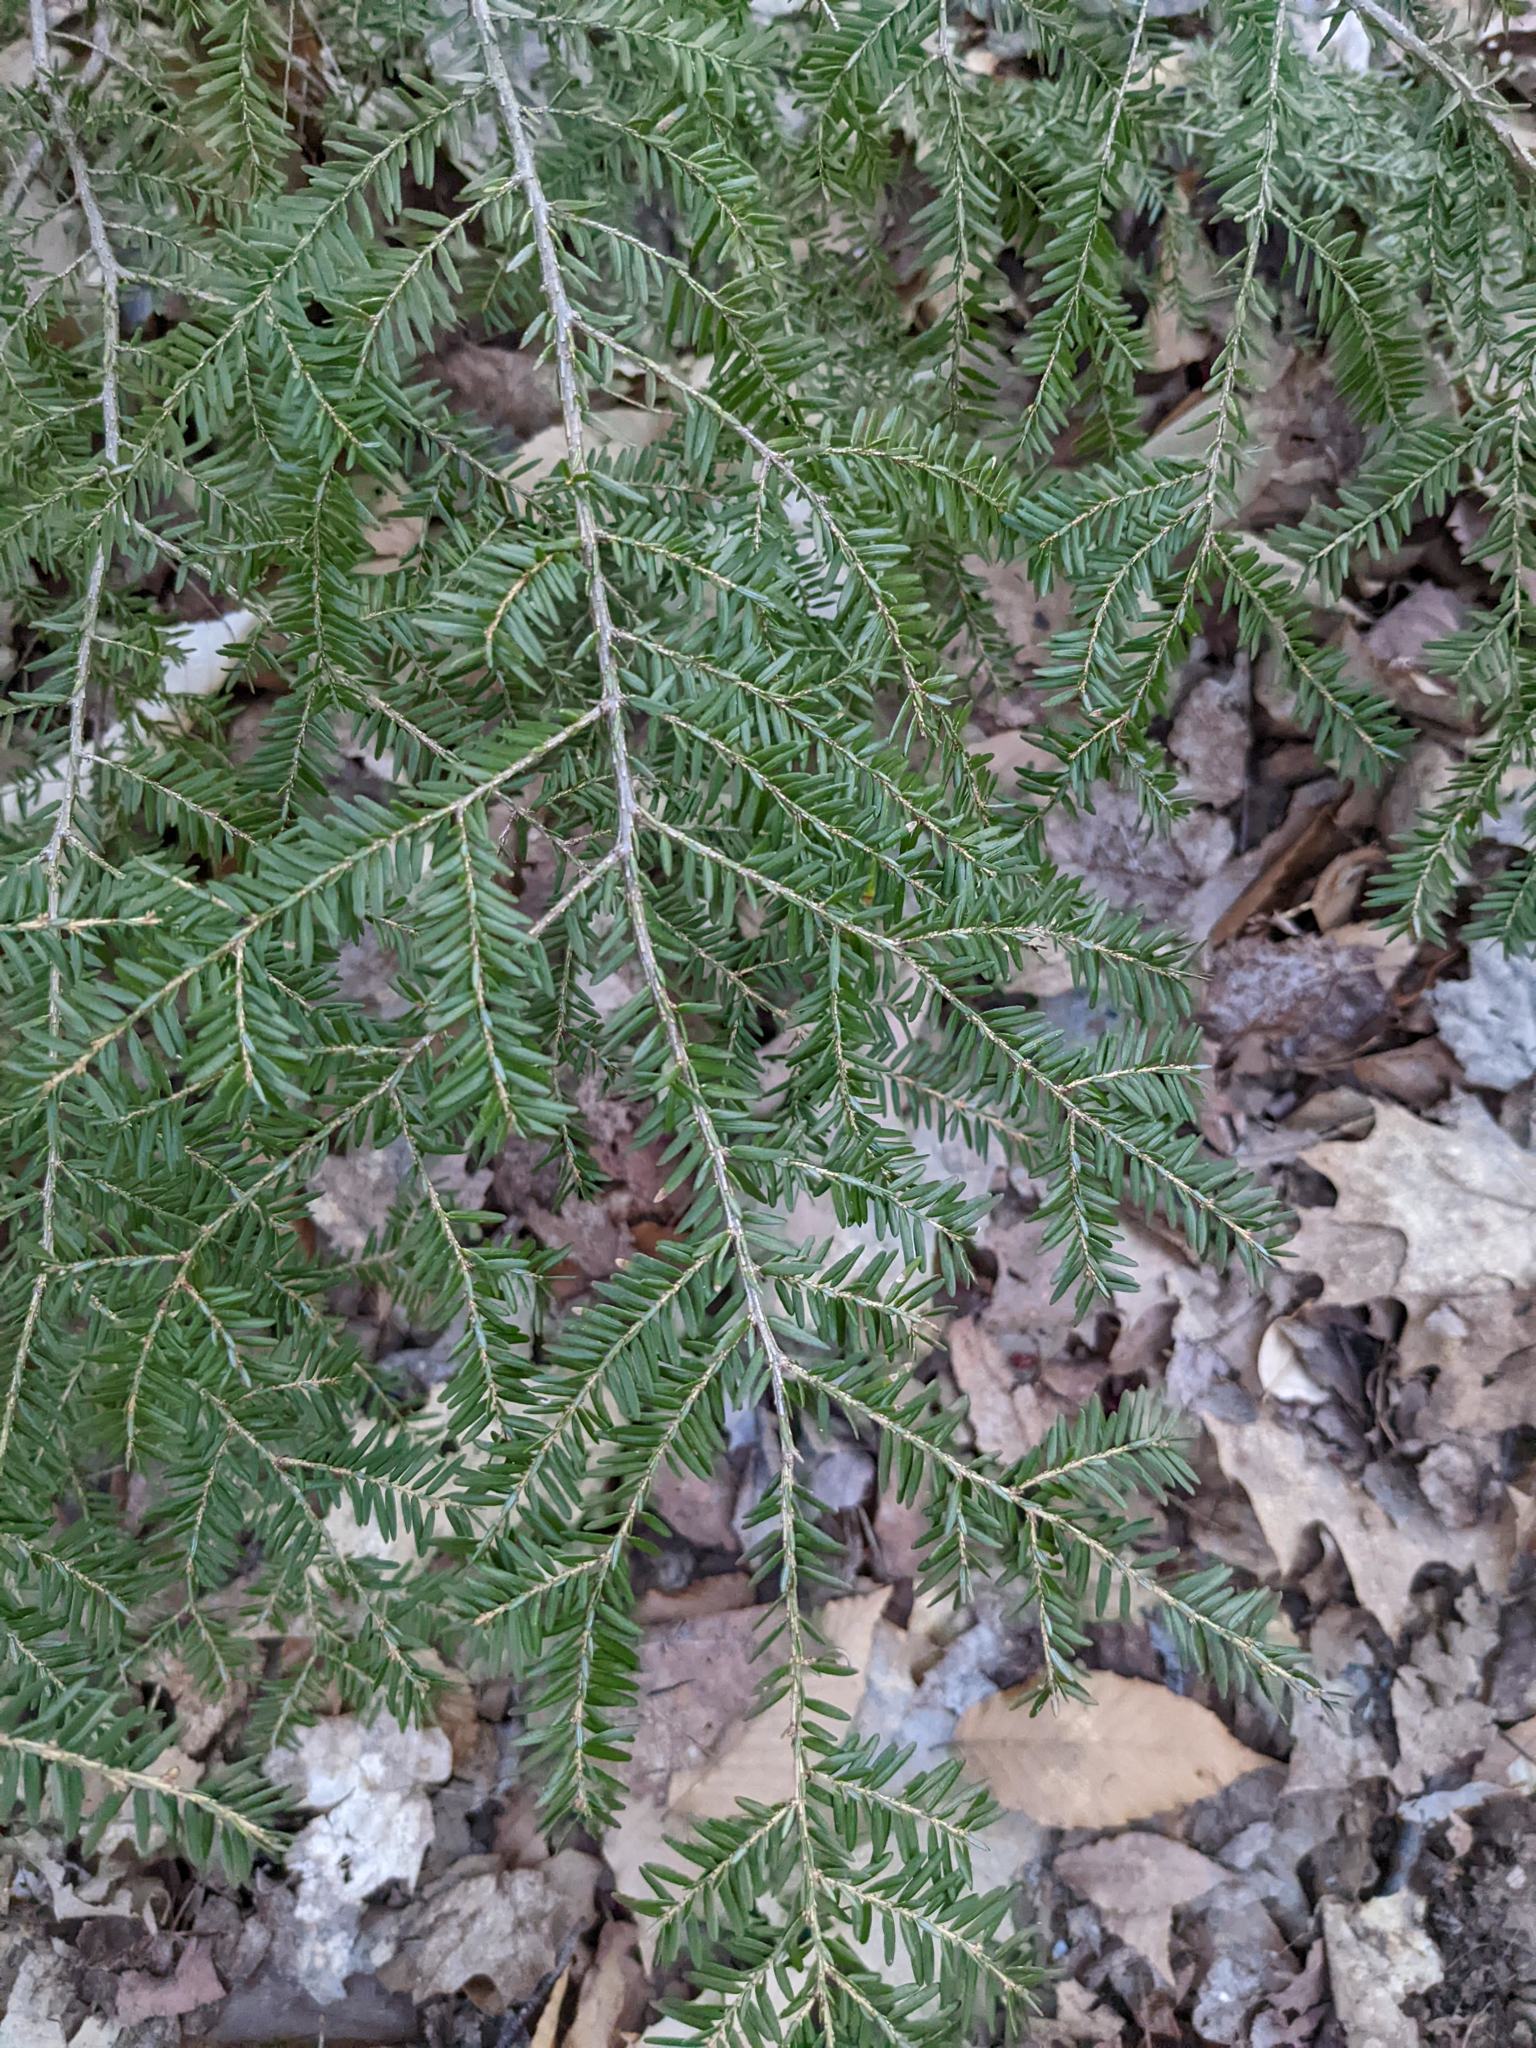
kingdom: Plantae
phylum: Tracheophyta
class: Pinopsida
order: Pinales
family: Pinaceae
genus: Tsuga
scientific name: Tsuga canadensis
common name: Eastern hemlock
